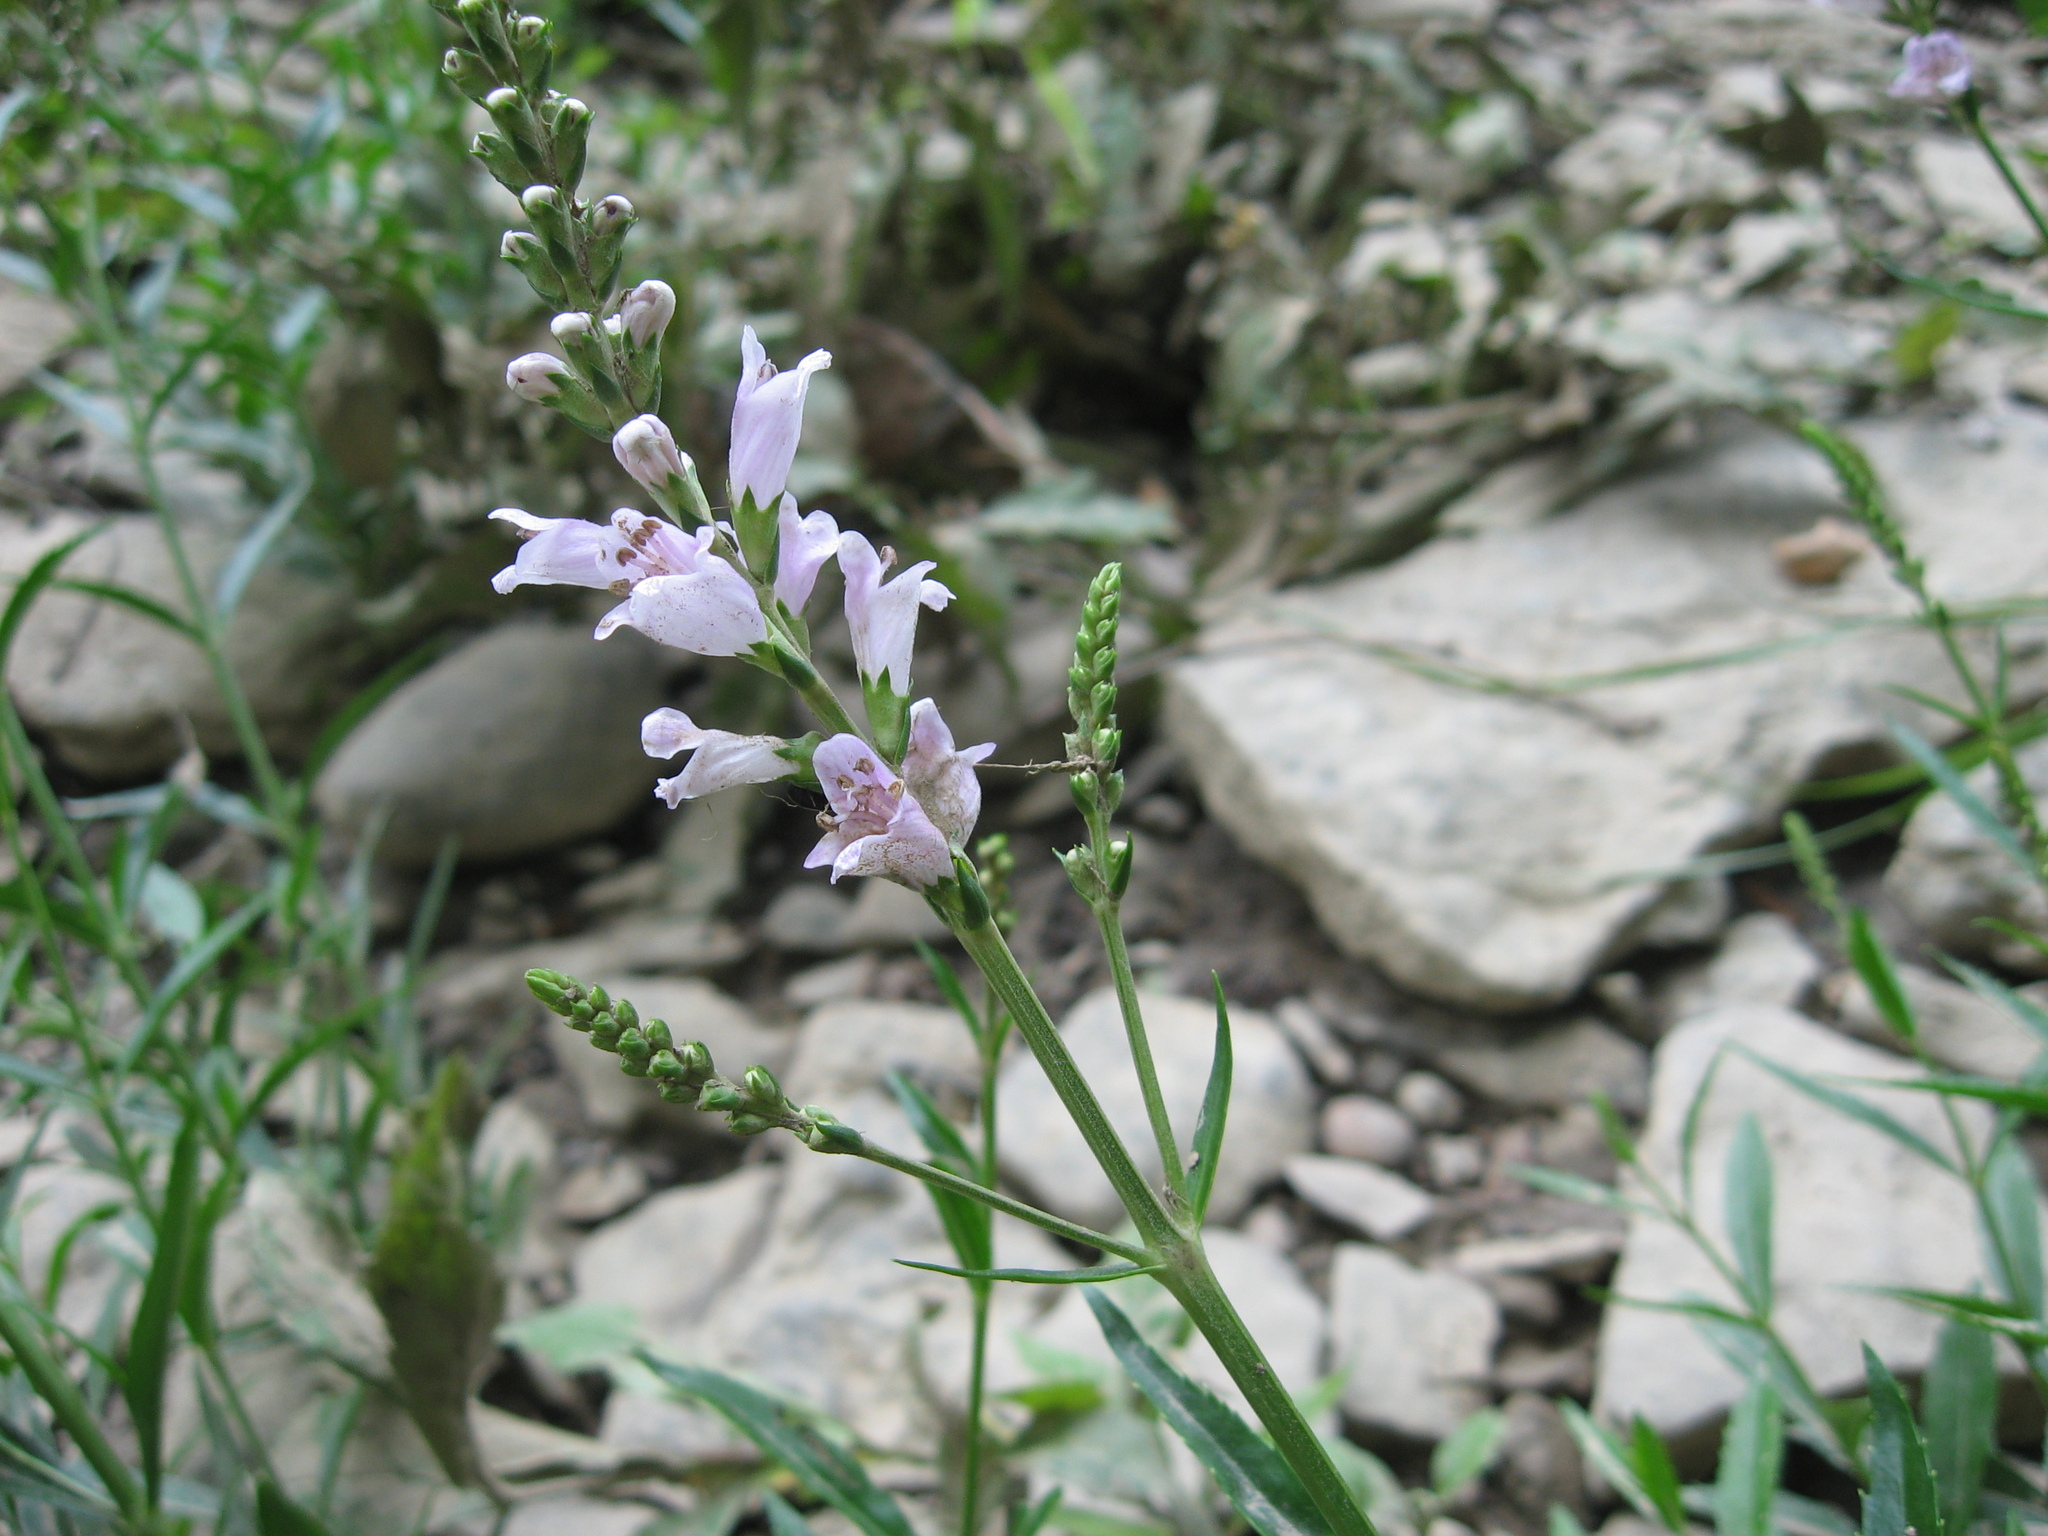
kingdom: Plantae
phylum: Tracheophyta
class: Magnoliopsida
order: Lamiales
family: Lamiaceae
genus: Physostegia
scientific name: Physostegia virginiana
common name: Obedient-plant
